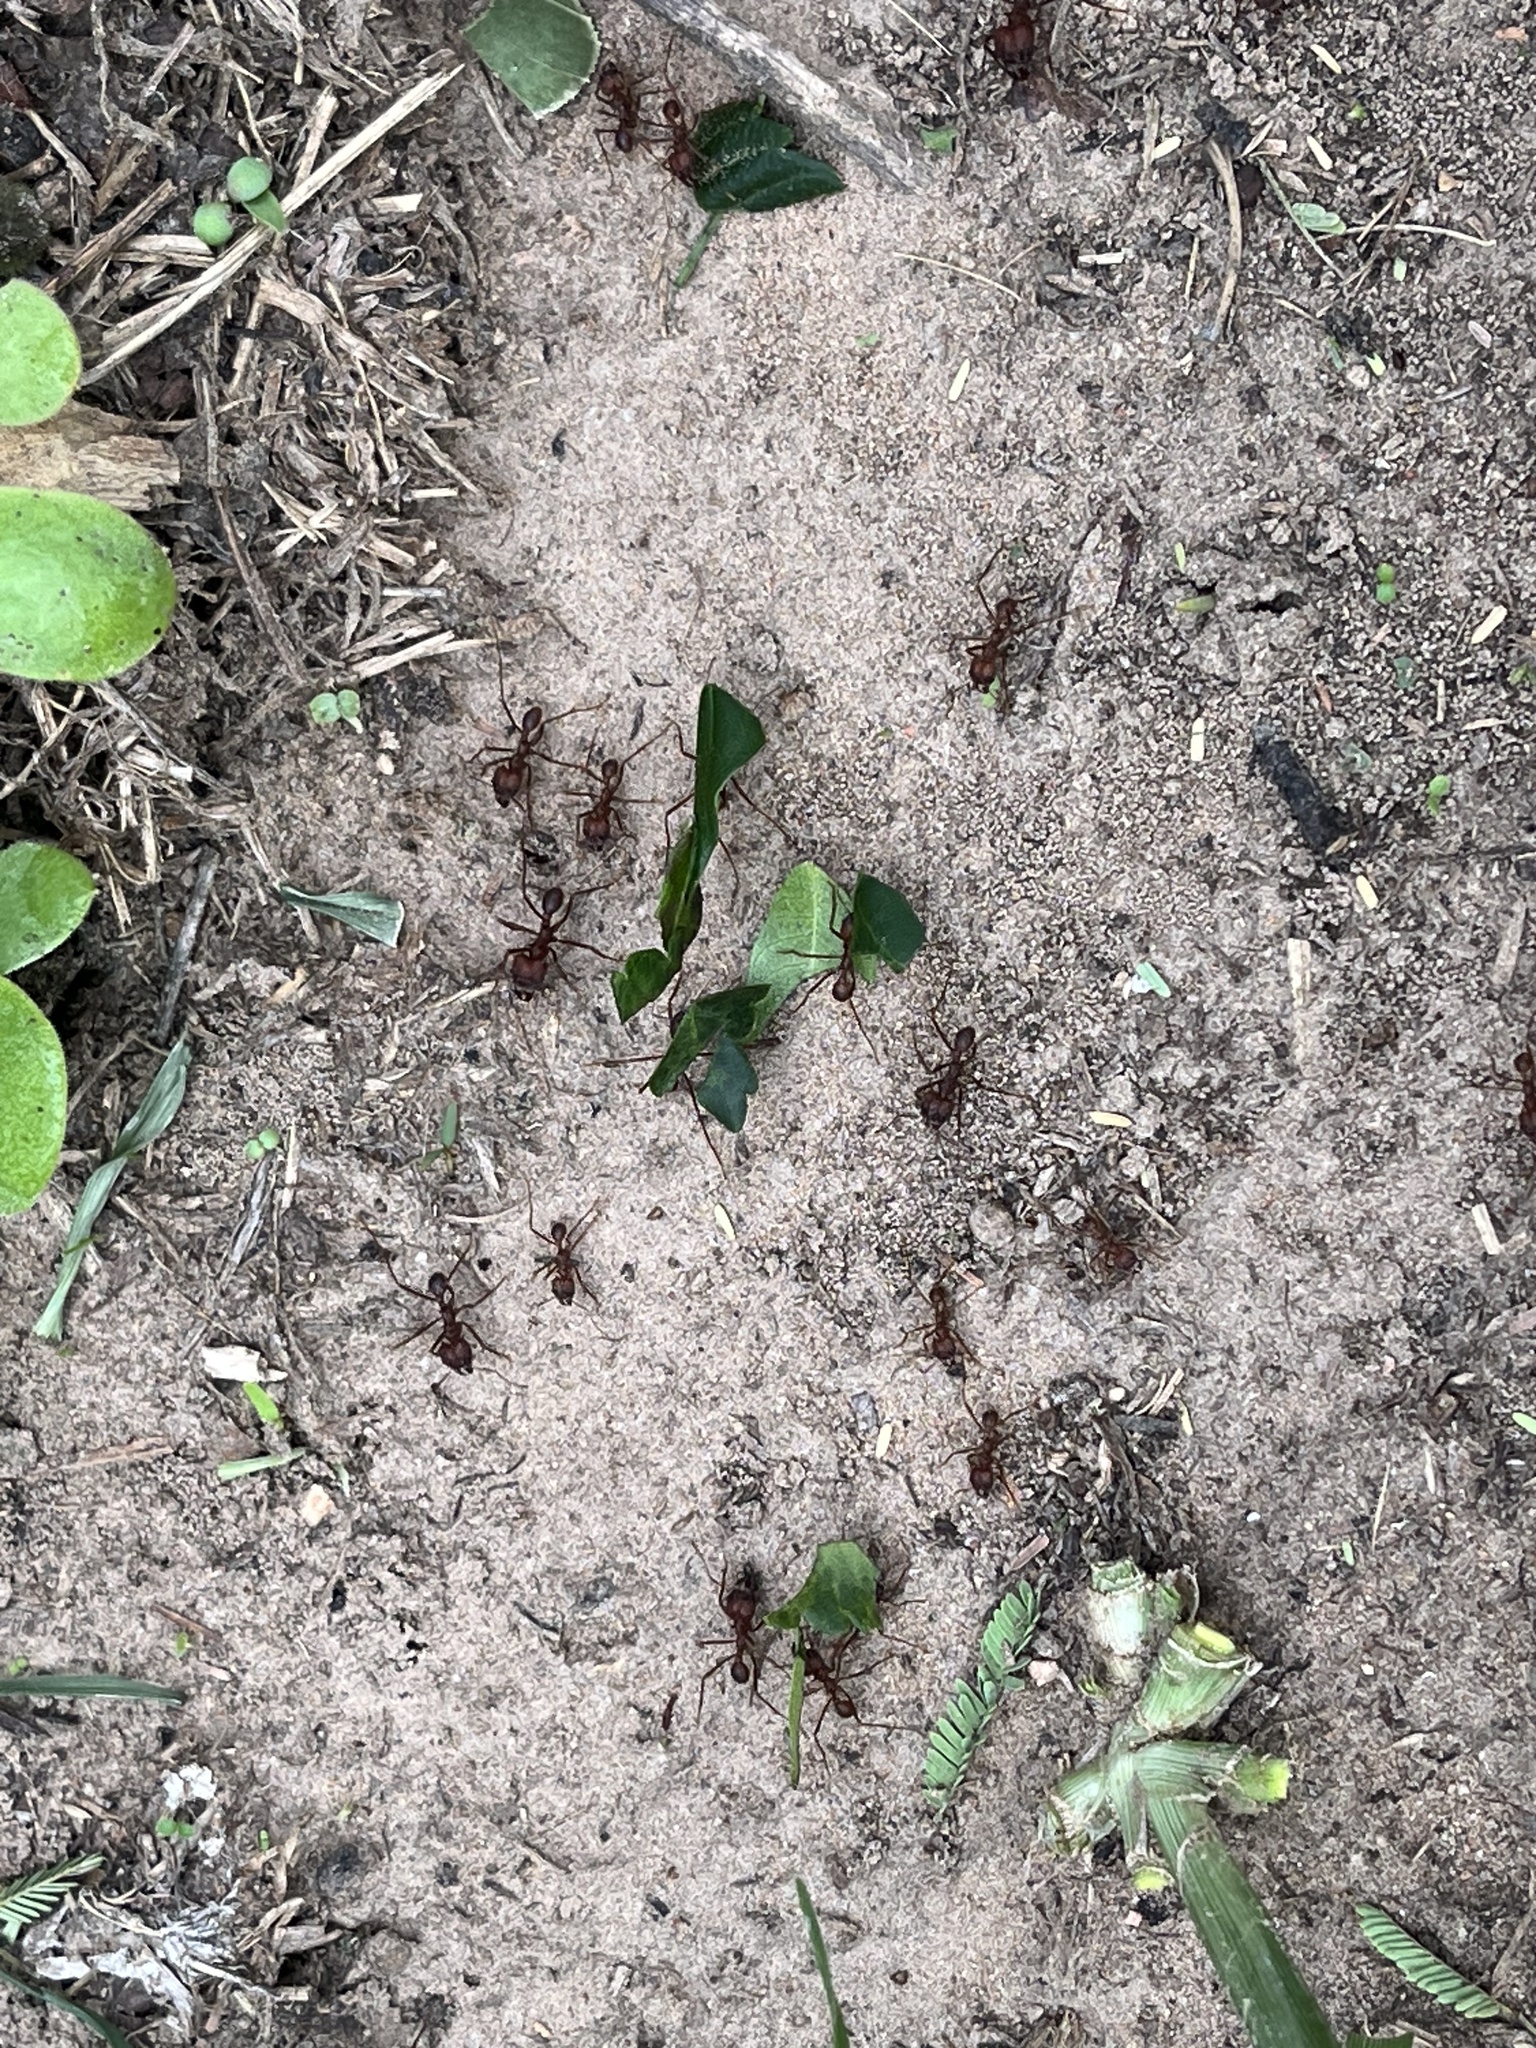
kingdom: Animalia
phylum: Arthropoda
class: Insecta
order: Hymenoptera
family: Formicidae
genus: Atta
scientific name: Atta texana
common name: Texas leafcutting ant
